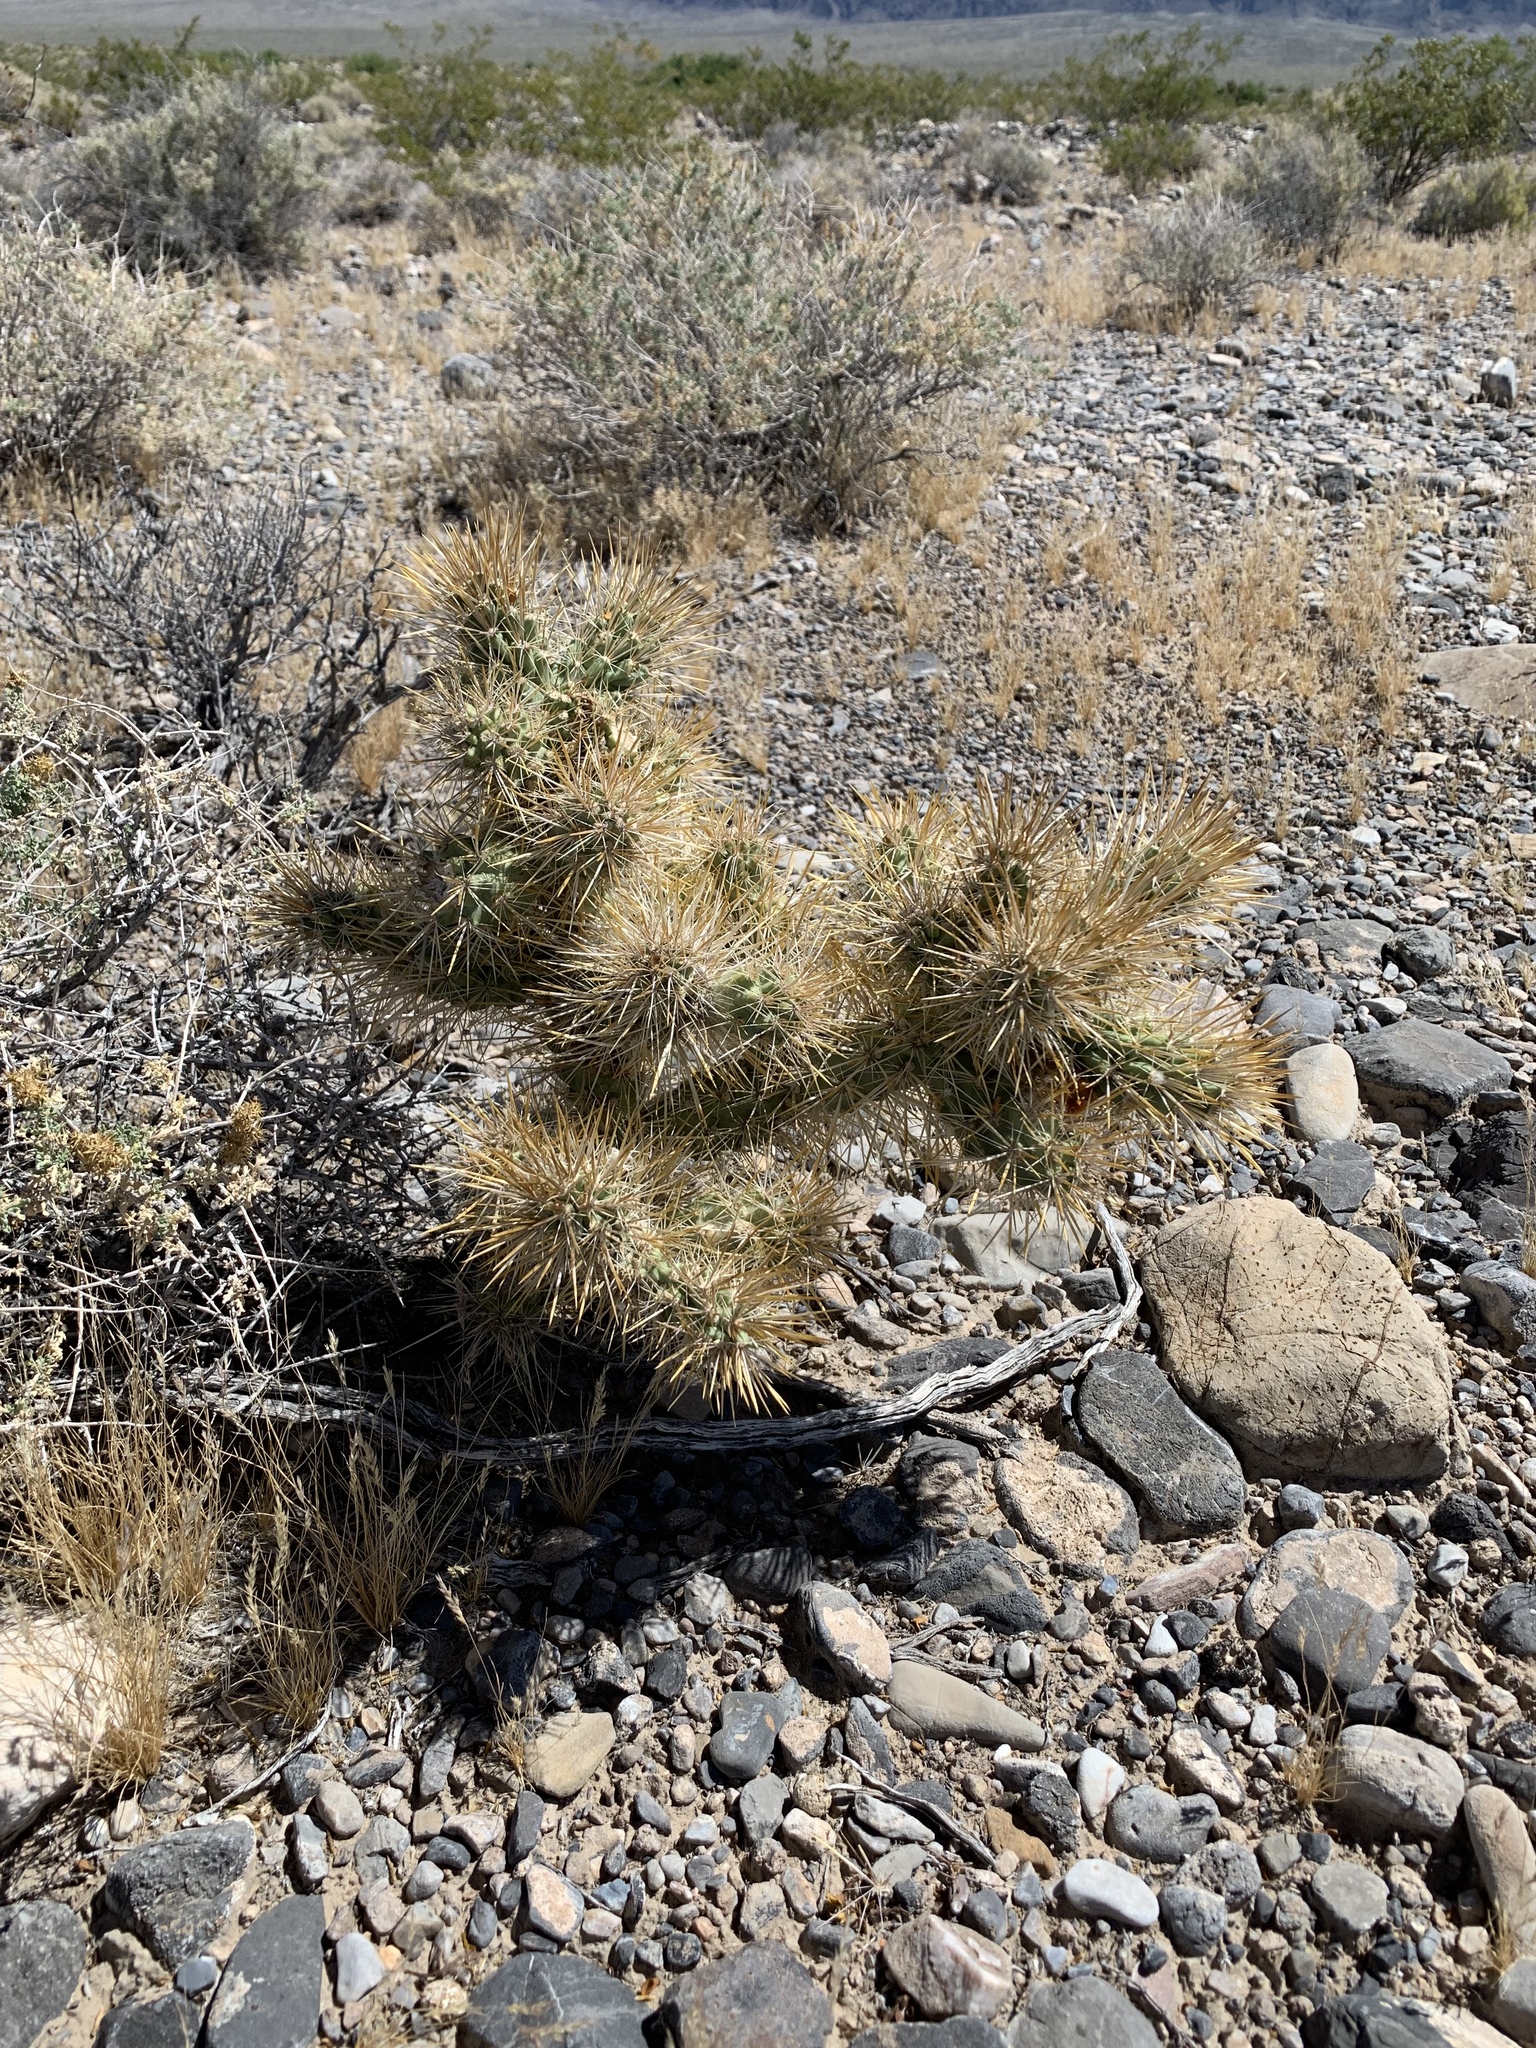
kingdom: Plantae
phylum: Tracheophyta
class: Magnoliopsida
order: Caryophyllales
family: Cactaceae
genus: Cylindropuntia
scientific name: Cylindropuntia echinocarpa
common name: Ground cholla
